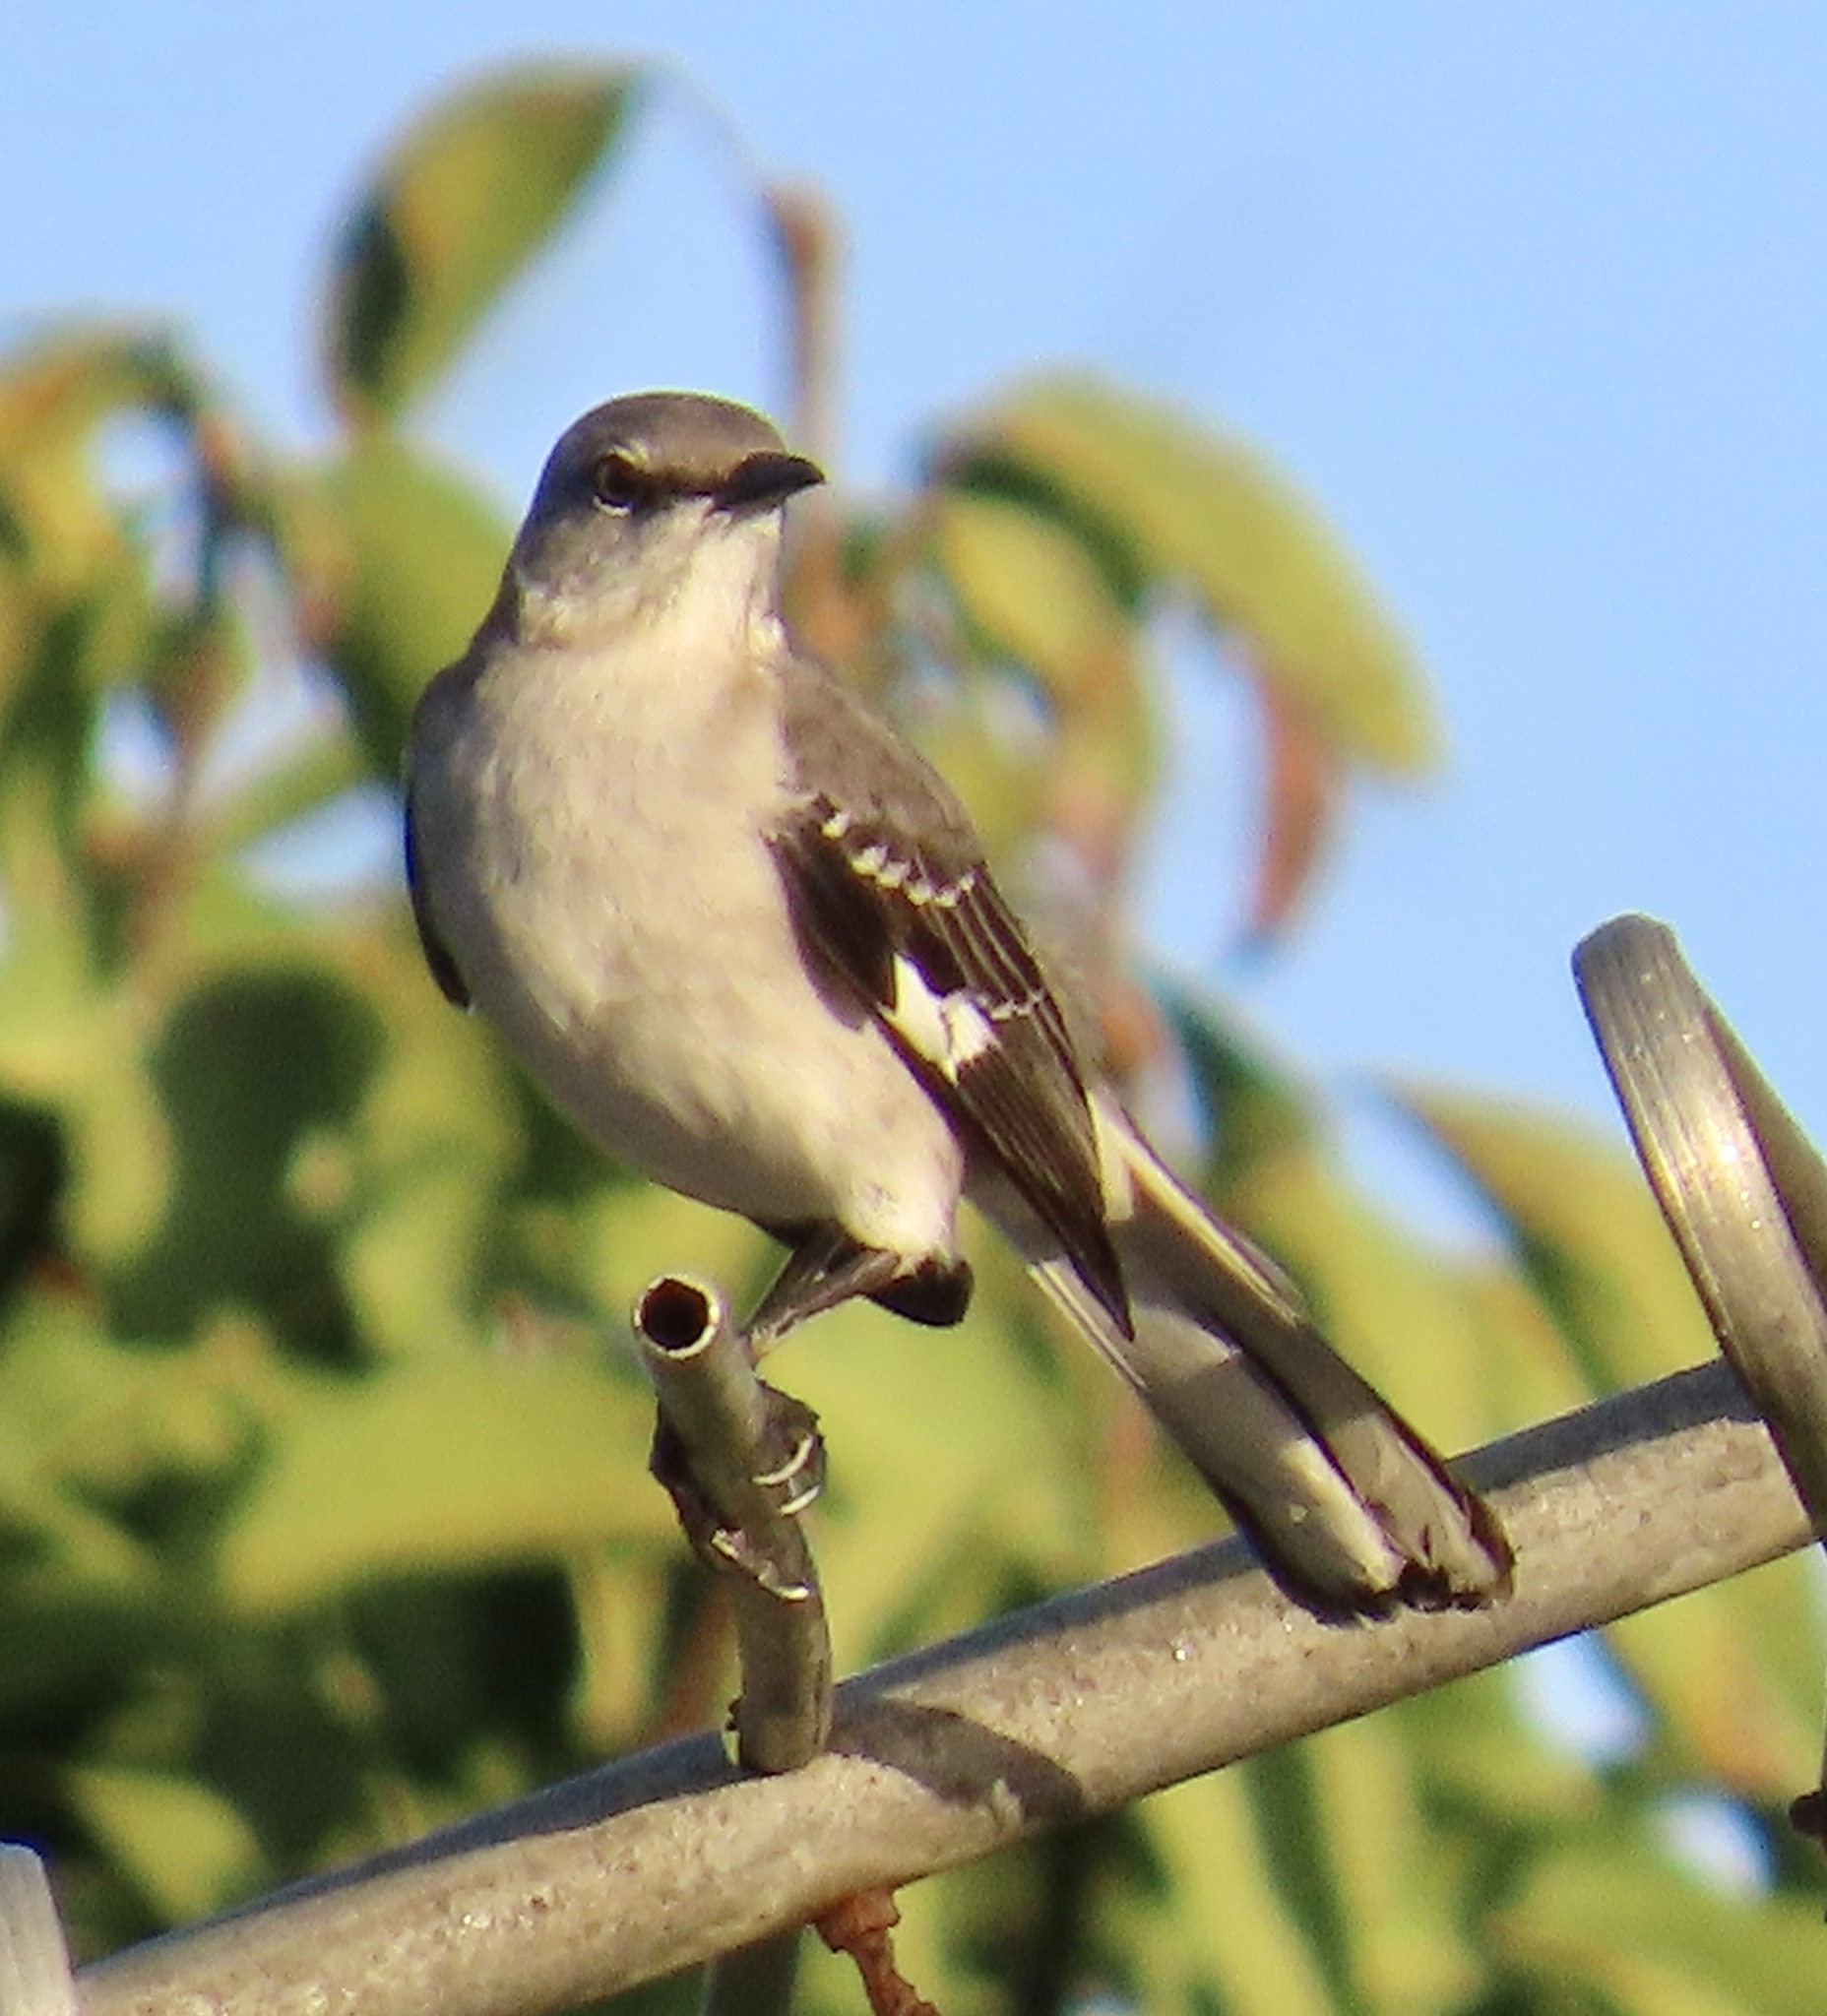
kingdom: Animalia
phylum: Chordata
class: Aves
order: Passeriformes
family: Mimidae
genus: Mimus
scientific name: Mimus polyglottos
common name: Northern mockingbird
